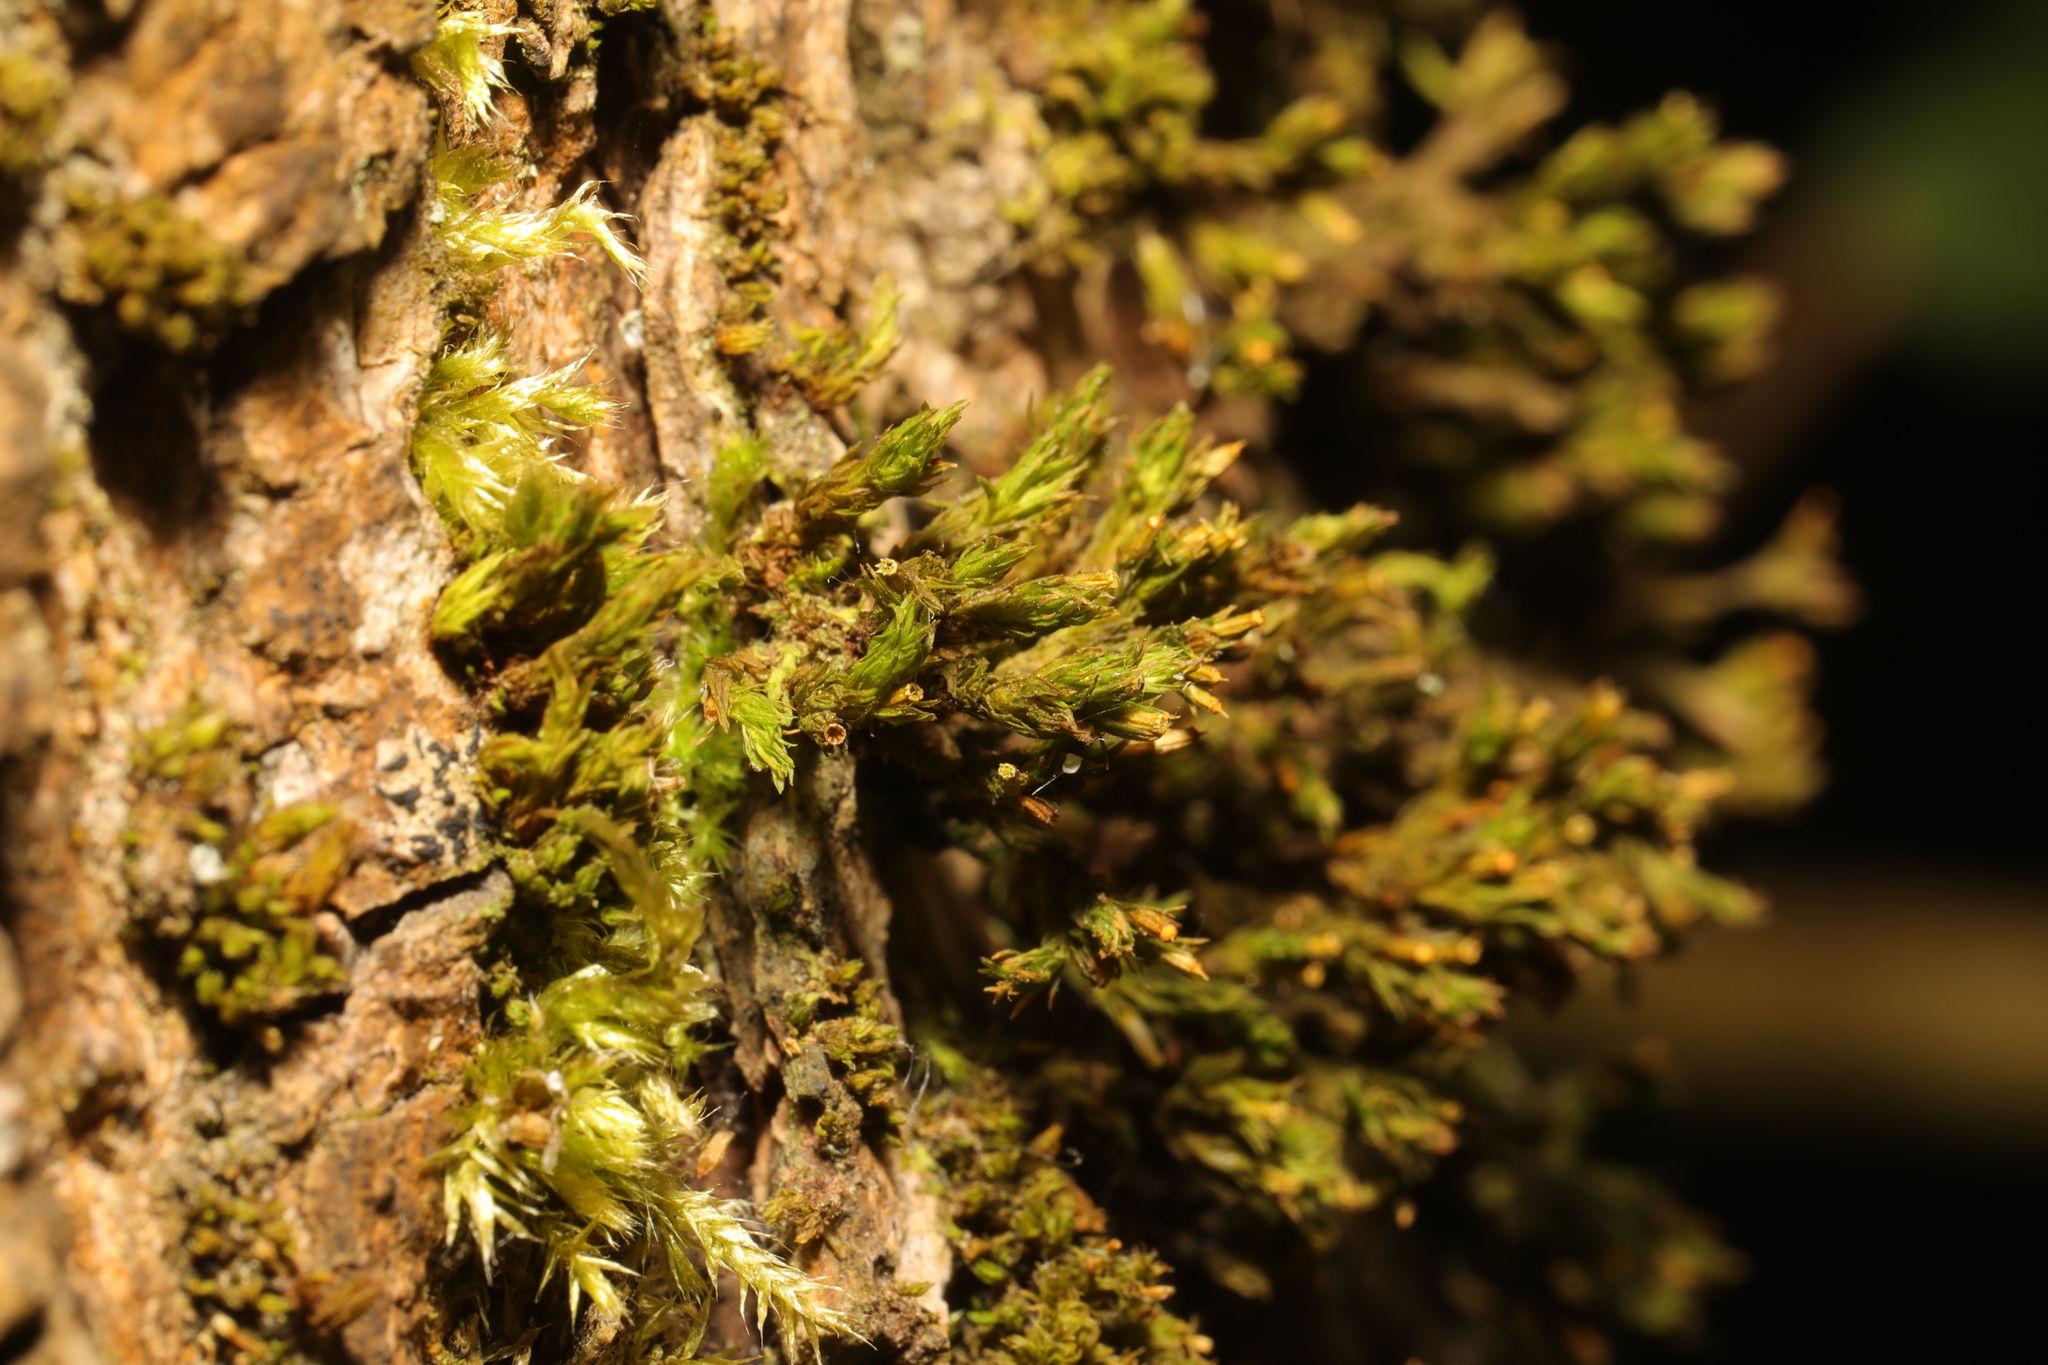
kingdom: Plantae
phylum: Bryophyta
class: Bryopsida
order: Orthotrichales
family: Orthotrichaceae
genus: Lewinskya
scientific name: Lewinskya affinis
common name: Wood bristle-moss
